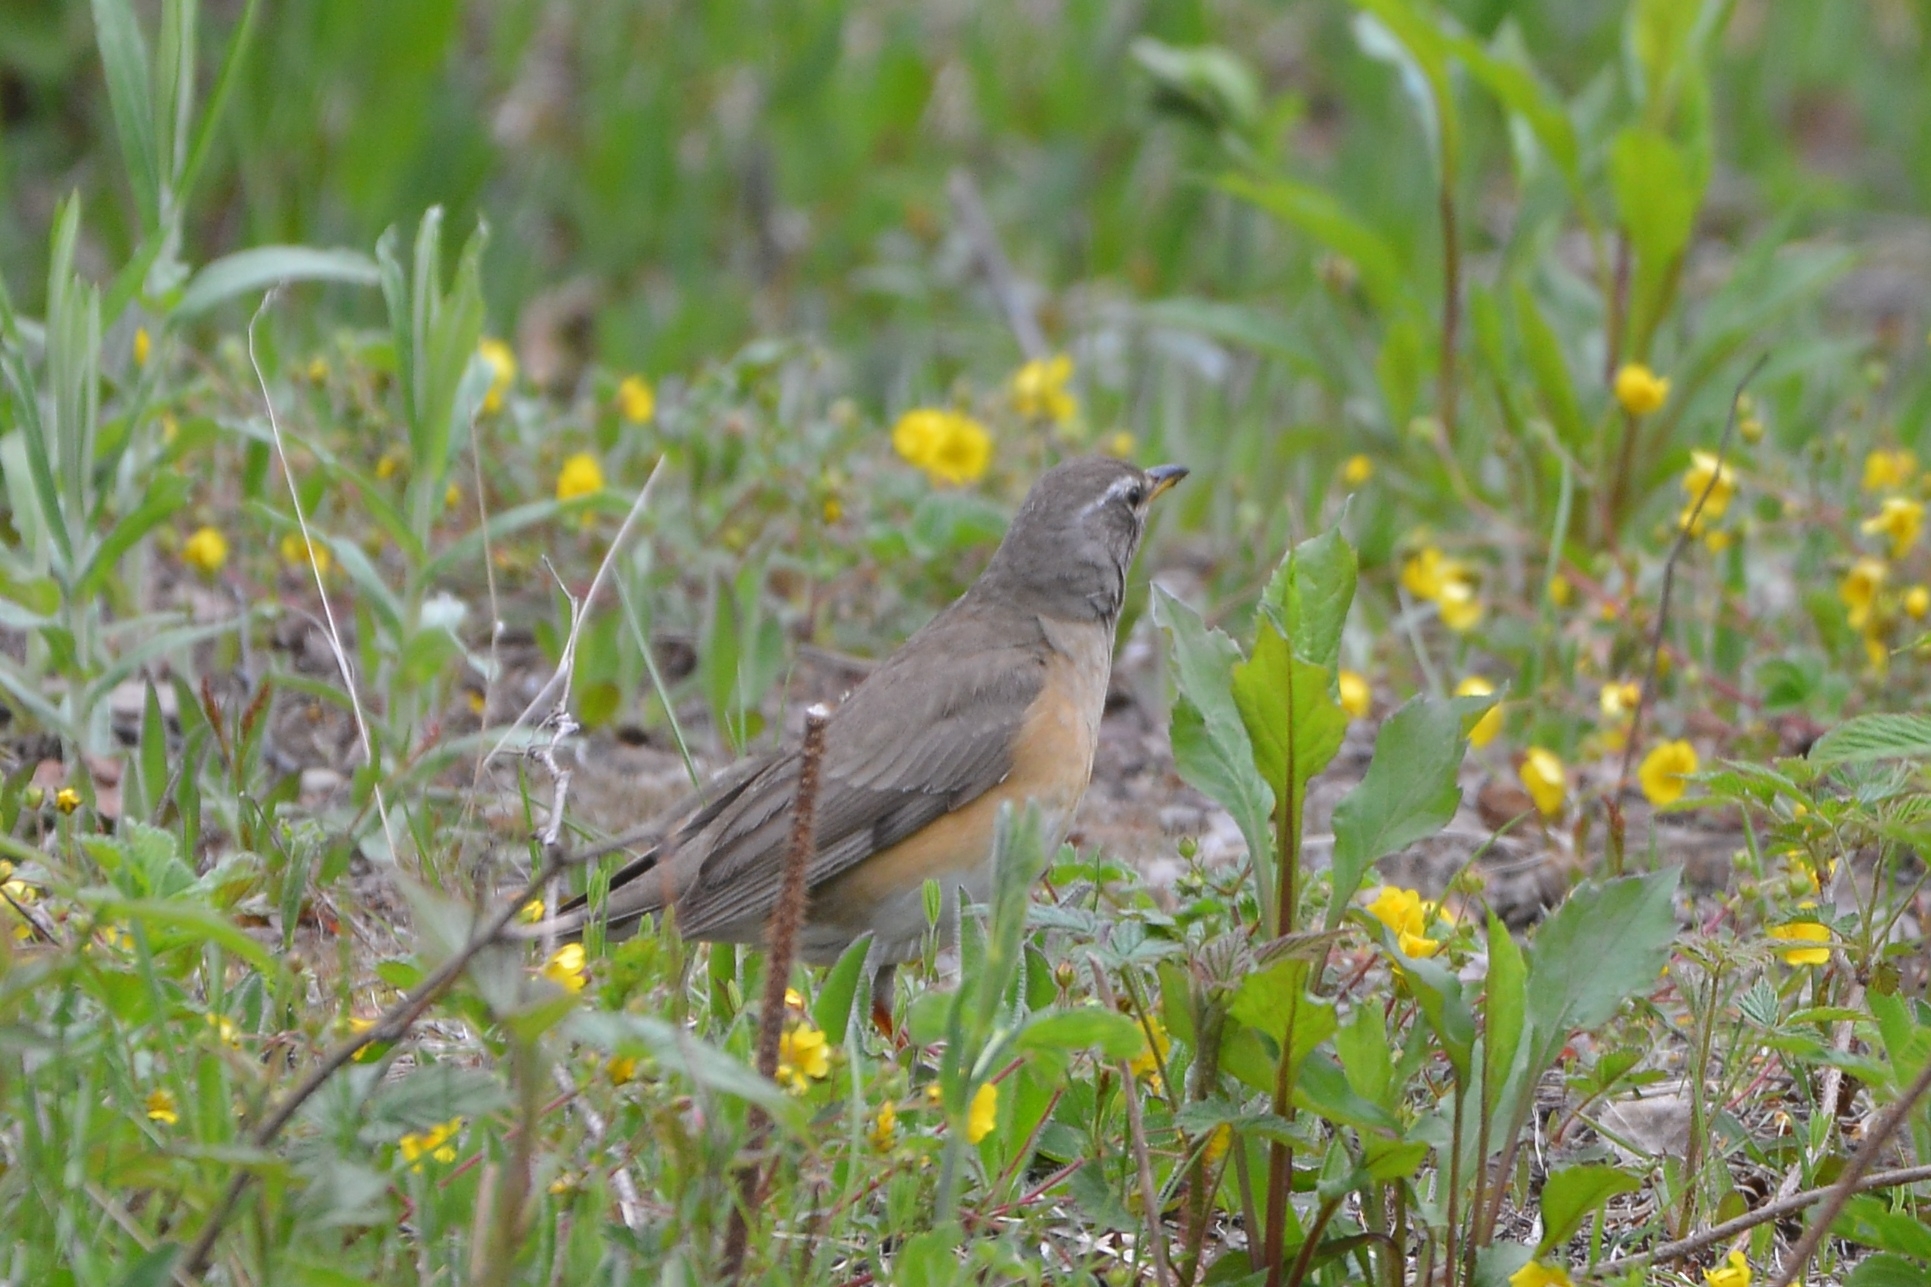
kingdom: Animalia
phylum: Chordata
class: Aves
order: Passeriformes
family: Turdidae
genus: Turdus
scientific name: Turdus obscurus
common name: Eyebrowed thrush
